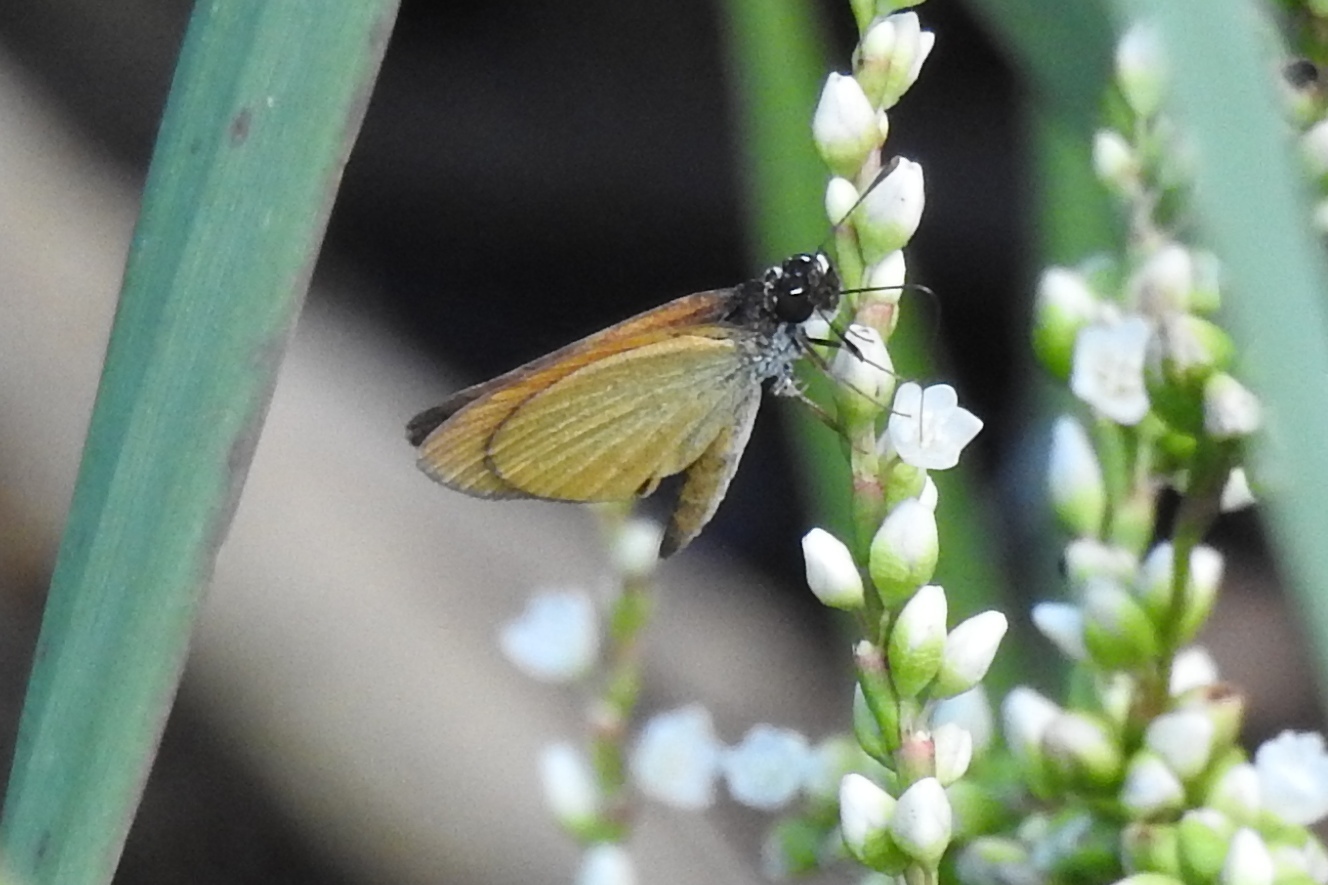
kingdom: Animalia
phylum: Arthropoda
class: Insecta
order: Lepidoptera
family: Hesperiidae
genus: Ancyloxypha
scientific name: Ancyloxypha numitor
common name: Least skipper
